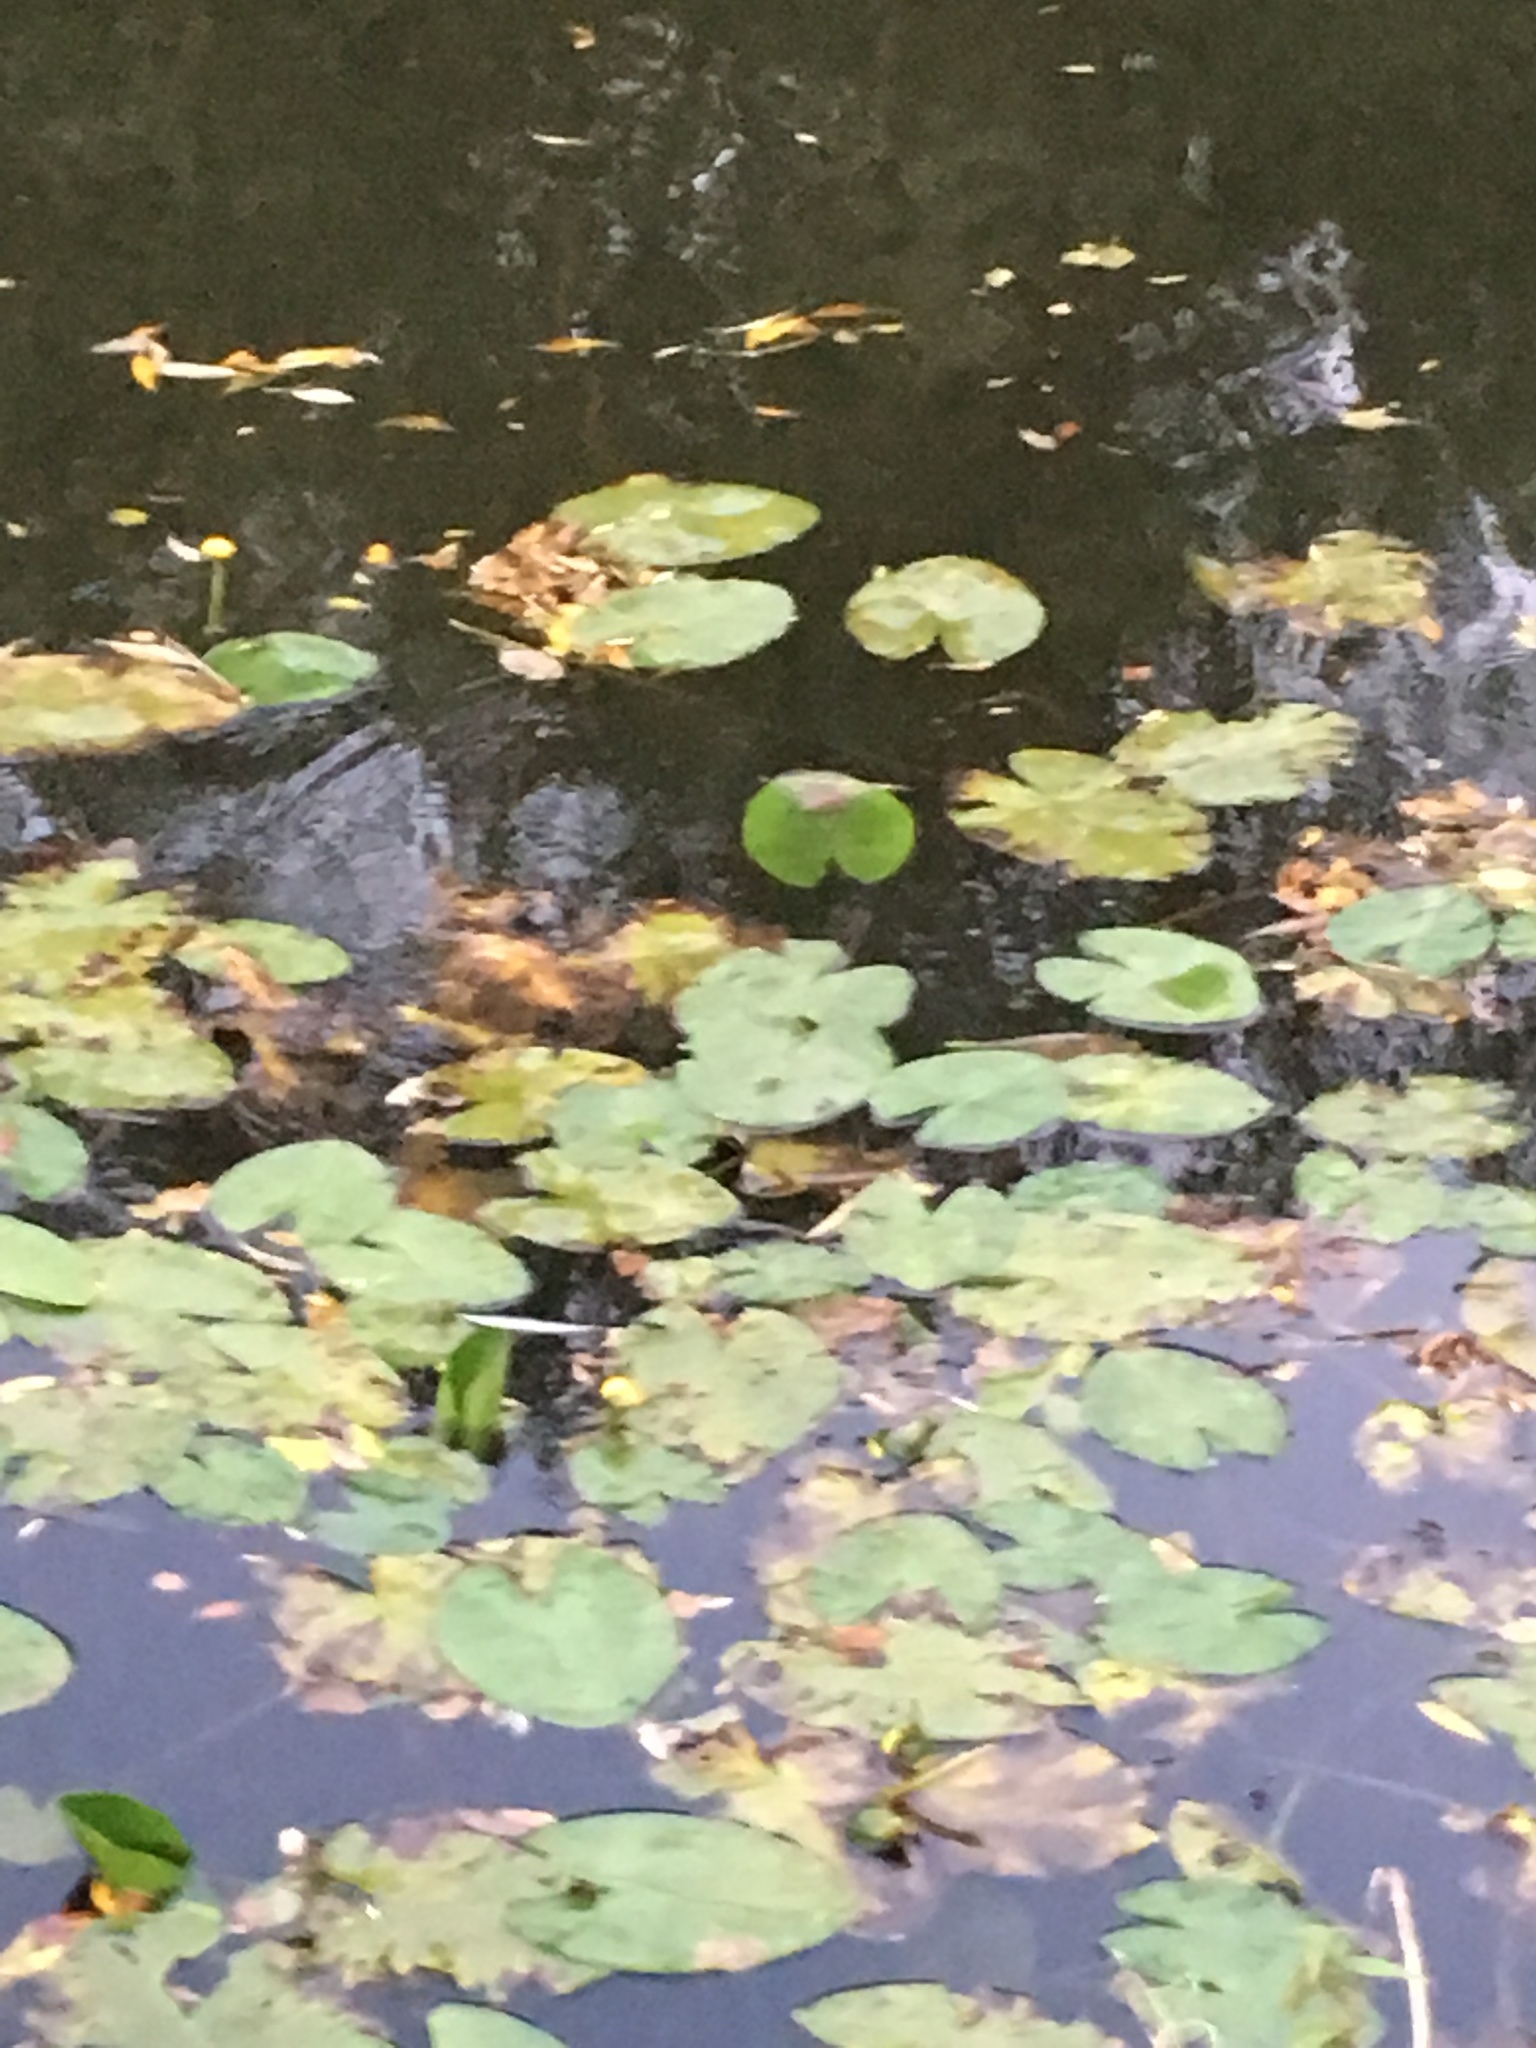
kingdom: Plantae
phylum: Tracheophyta
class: Magnoliopsida
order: Nymphaeales
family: Nymphaeaceae
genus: Nuphar
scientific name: Nuphar lutea
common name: Yellow water-lily
